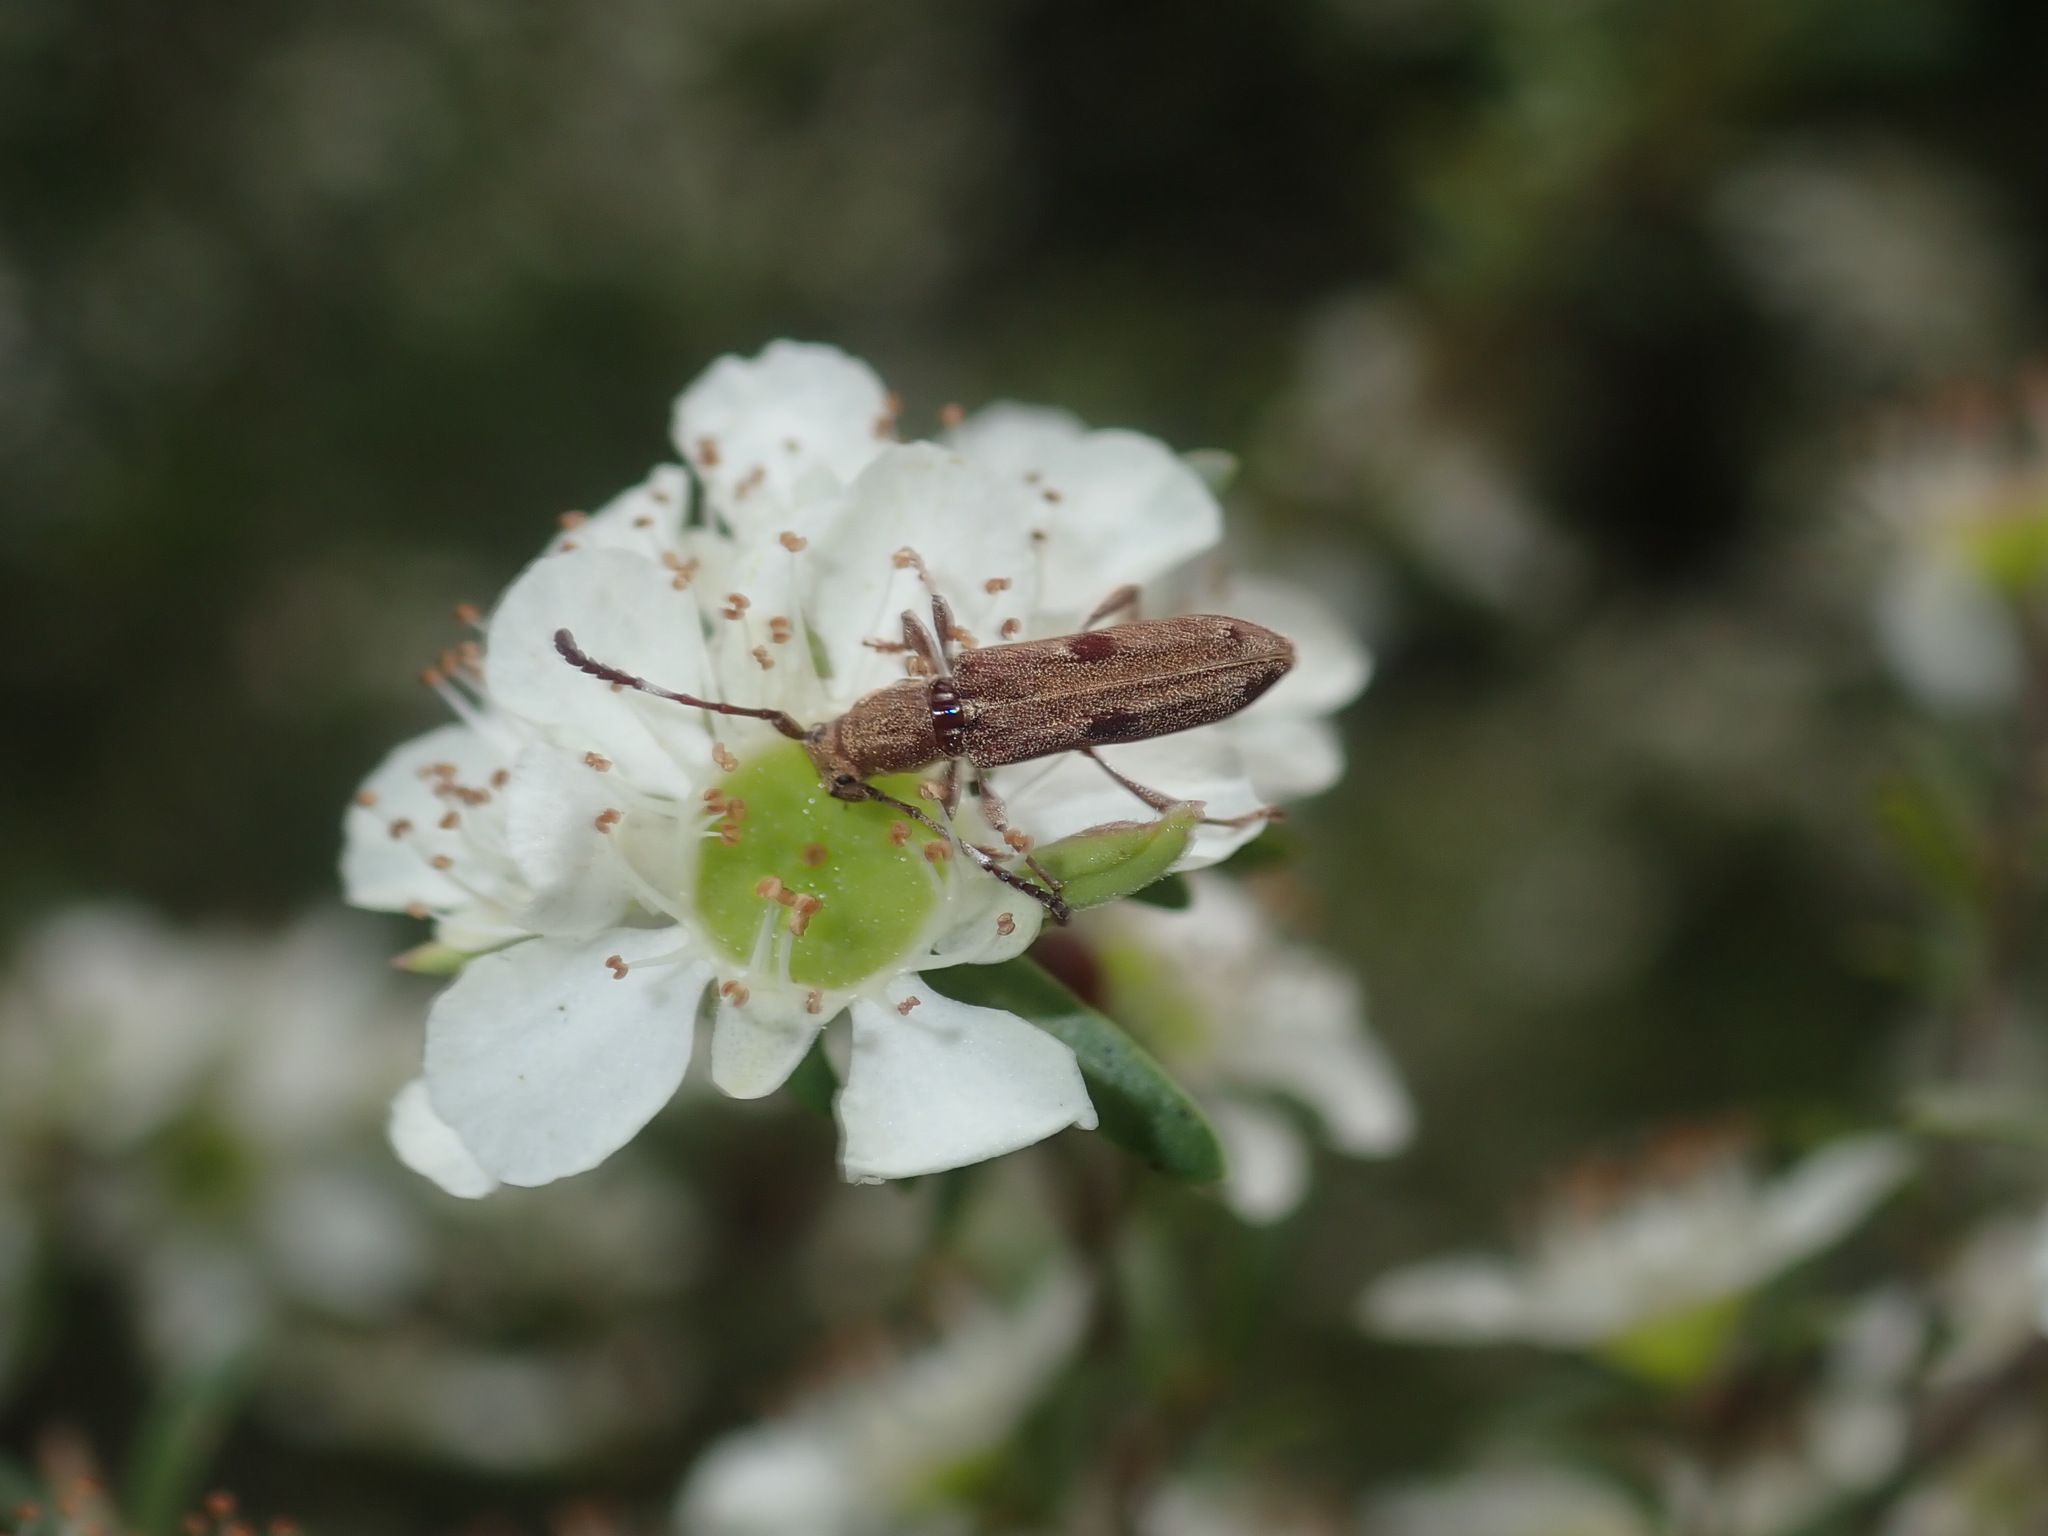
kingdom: Animalia
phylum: Arthropoda
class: Insecta
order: Coleoptera
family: Cerambycidae
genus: Pempsamacra
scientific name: Pempsamacra tillides
